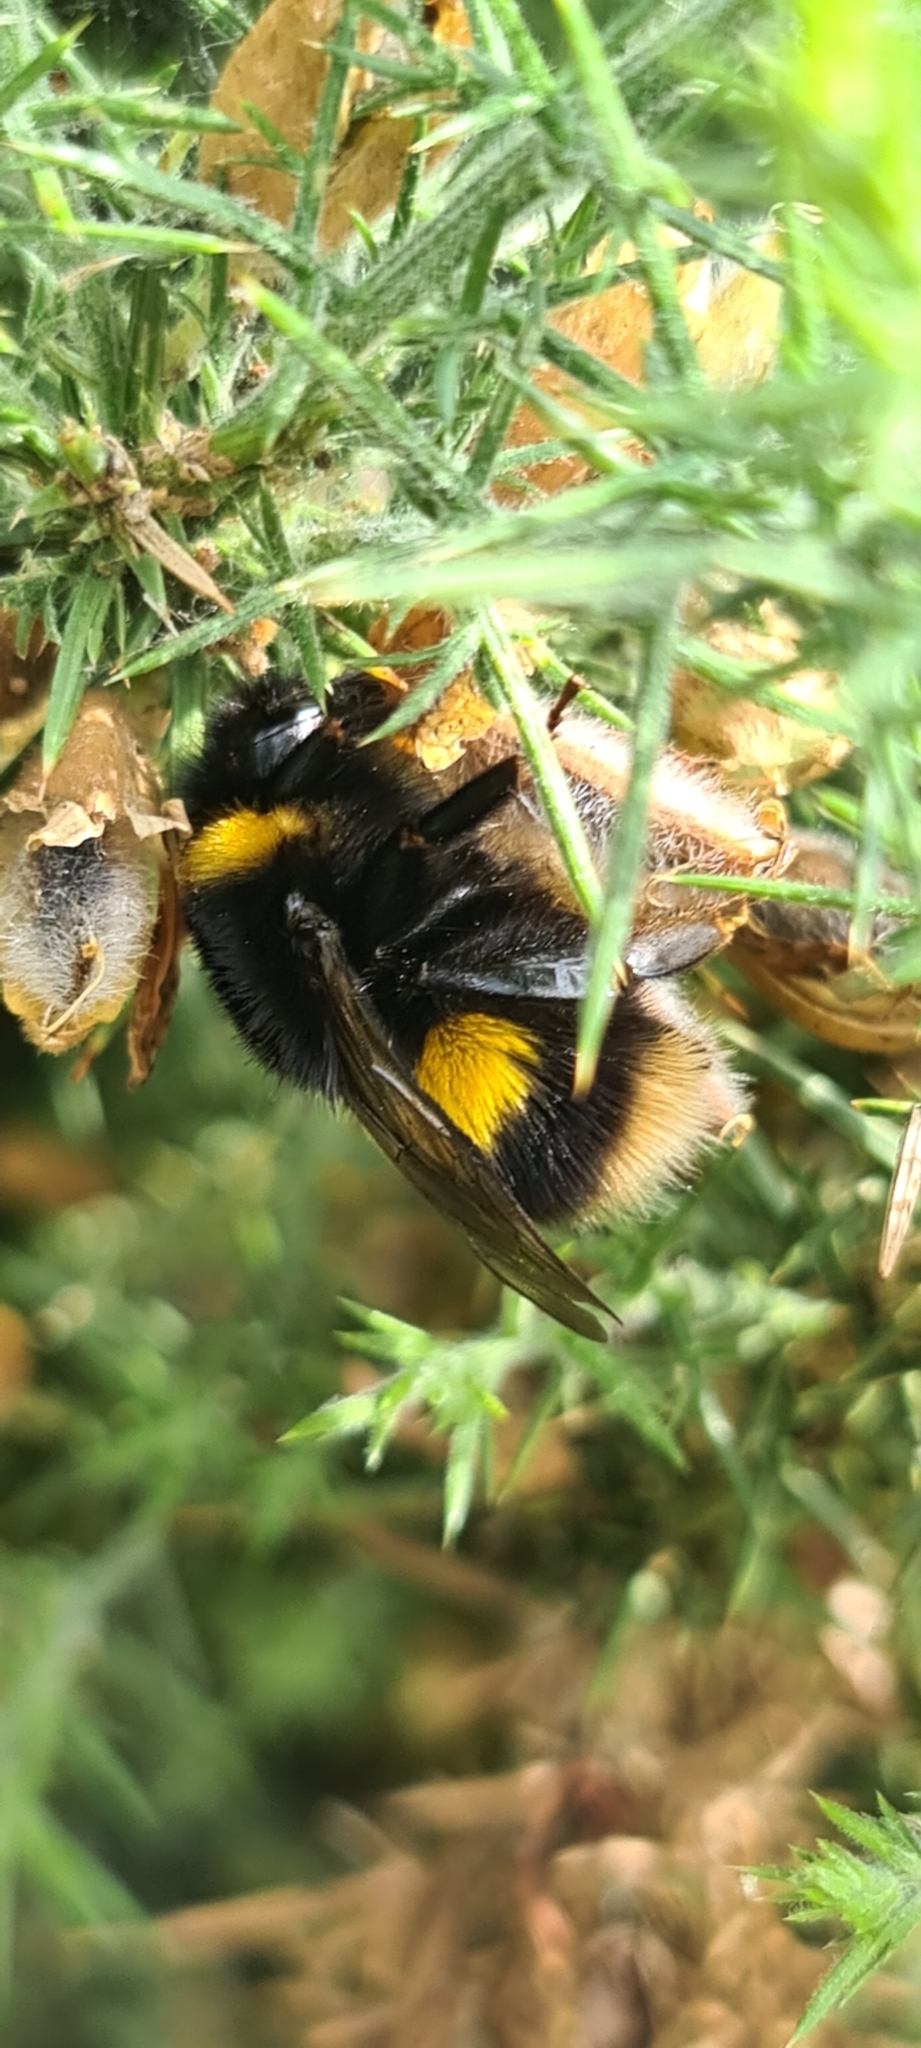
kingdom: Animalia
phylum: Arthropoda
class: Insecta
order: Hymenoptera
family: Apidae
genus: Bombus
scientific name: Bombus terrestris
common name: Buff-tailed bumblebee
